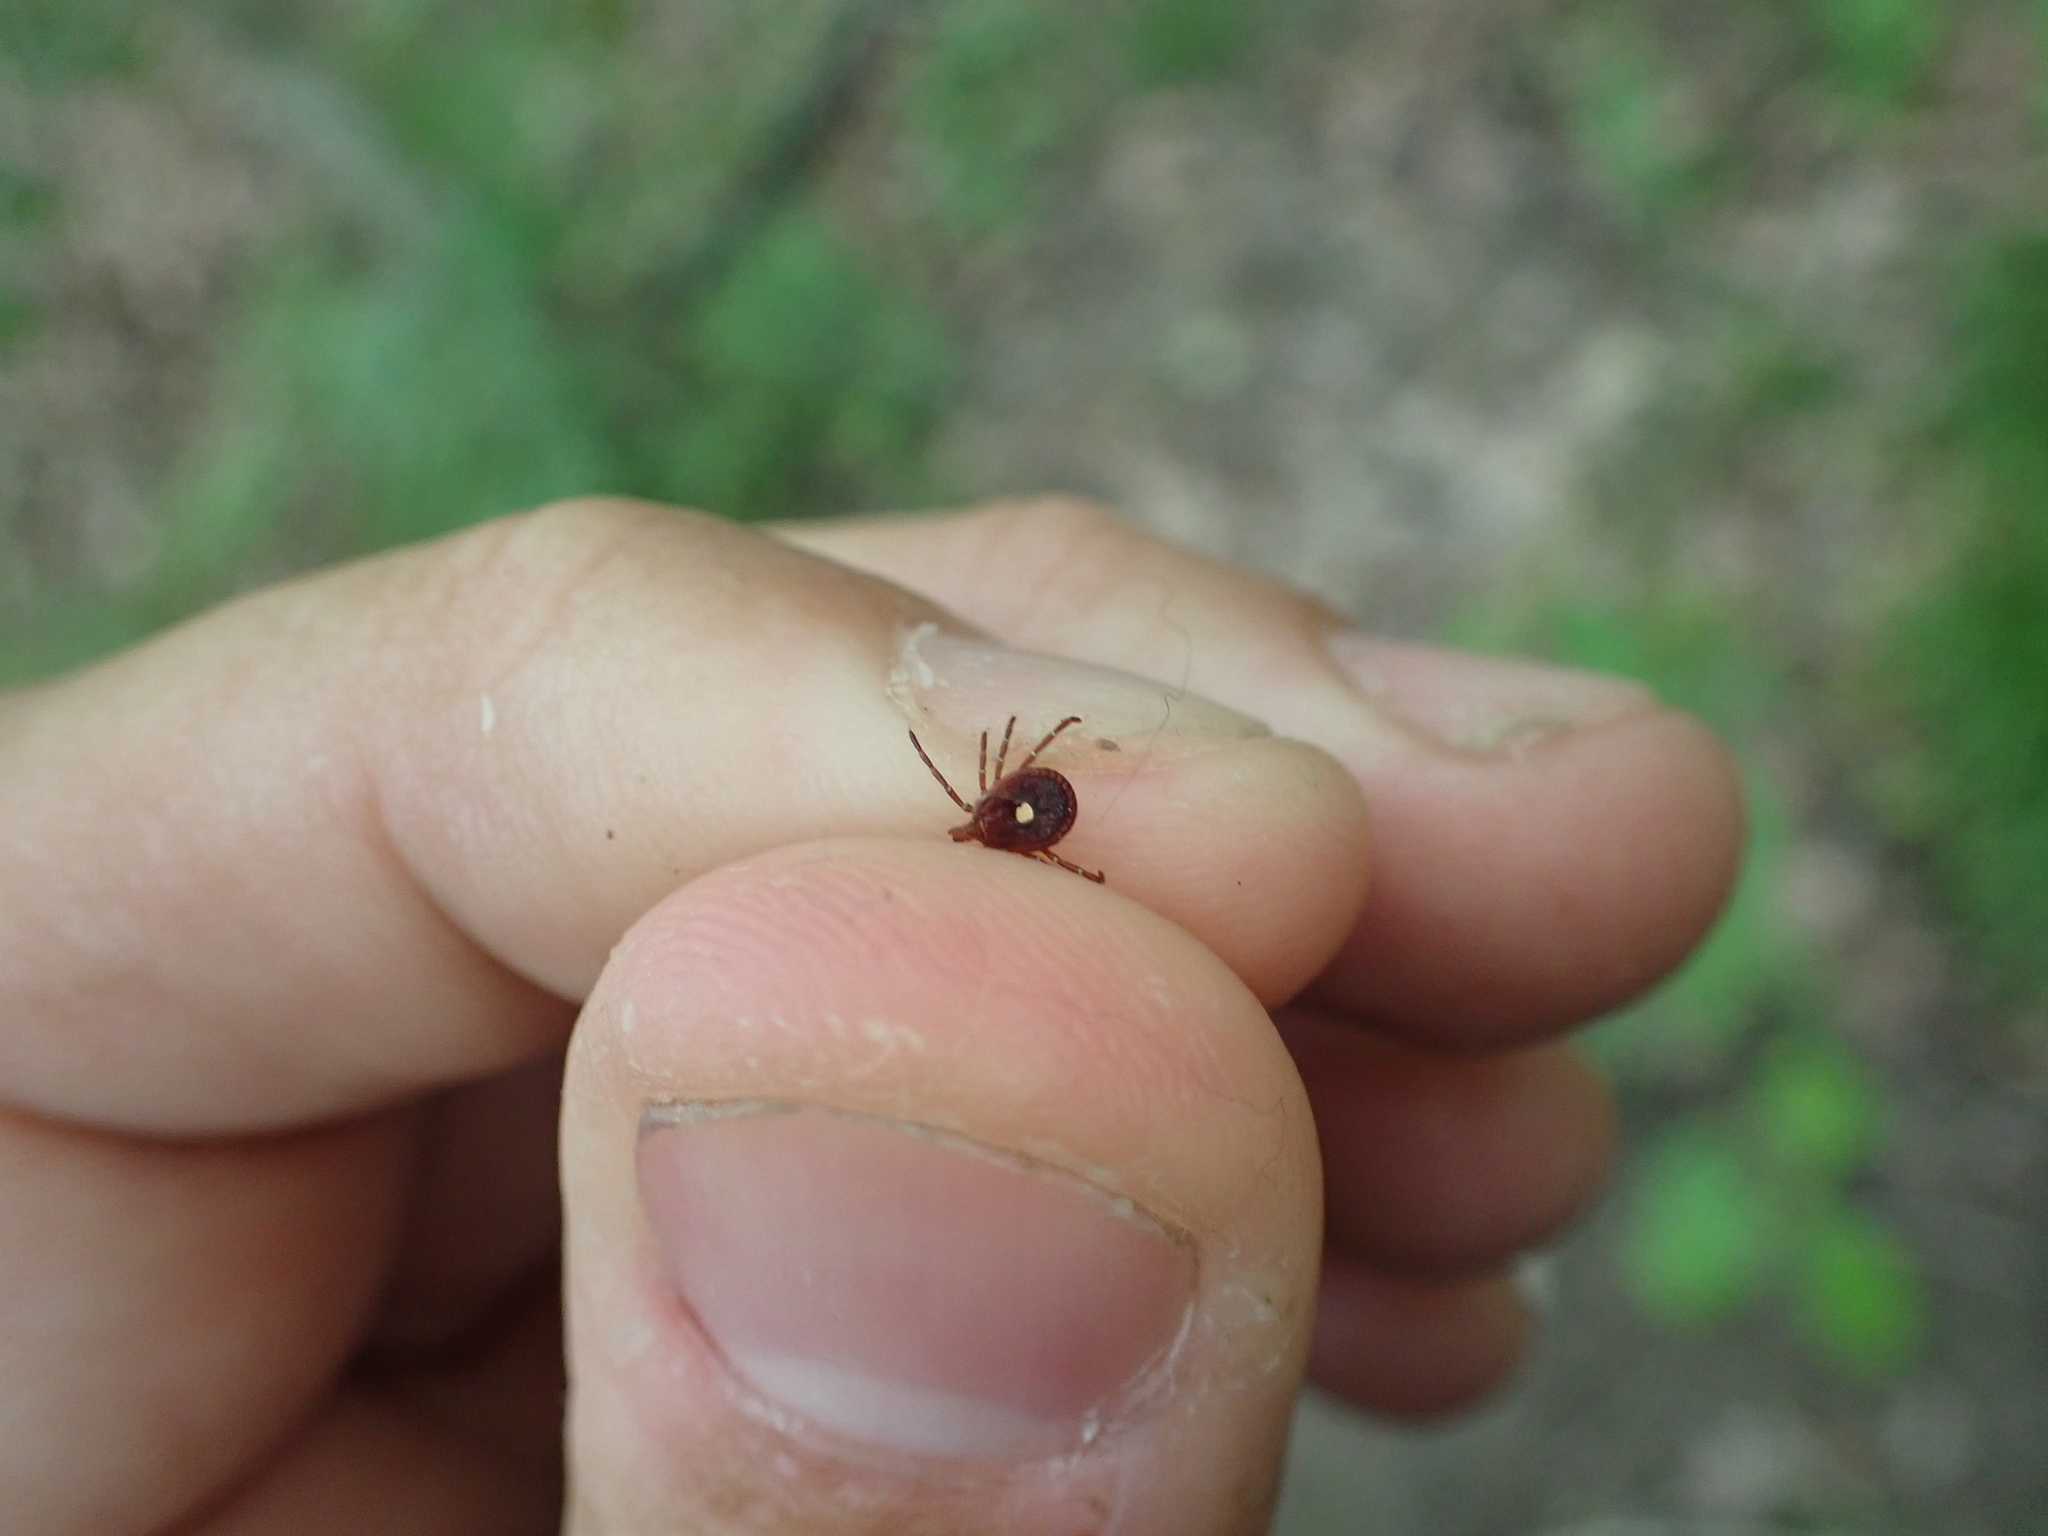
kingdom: Animalia
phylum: Arthropoda
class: Arachnida
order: Ixodida
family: Ixodidae
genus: Amblyomma
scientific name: Amblyomma americanum
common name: Lone star tick
